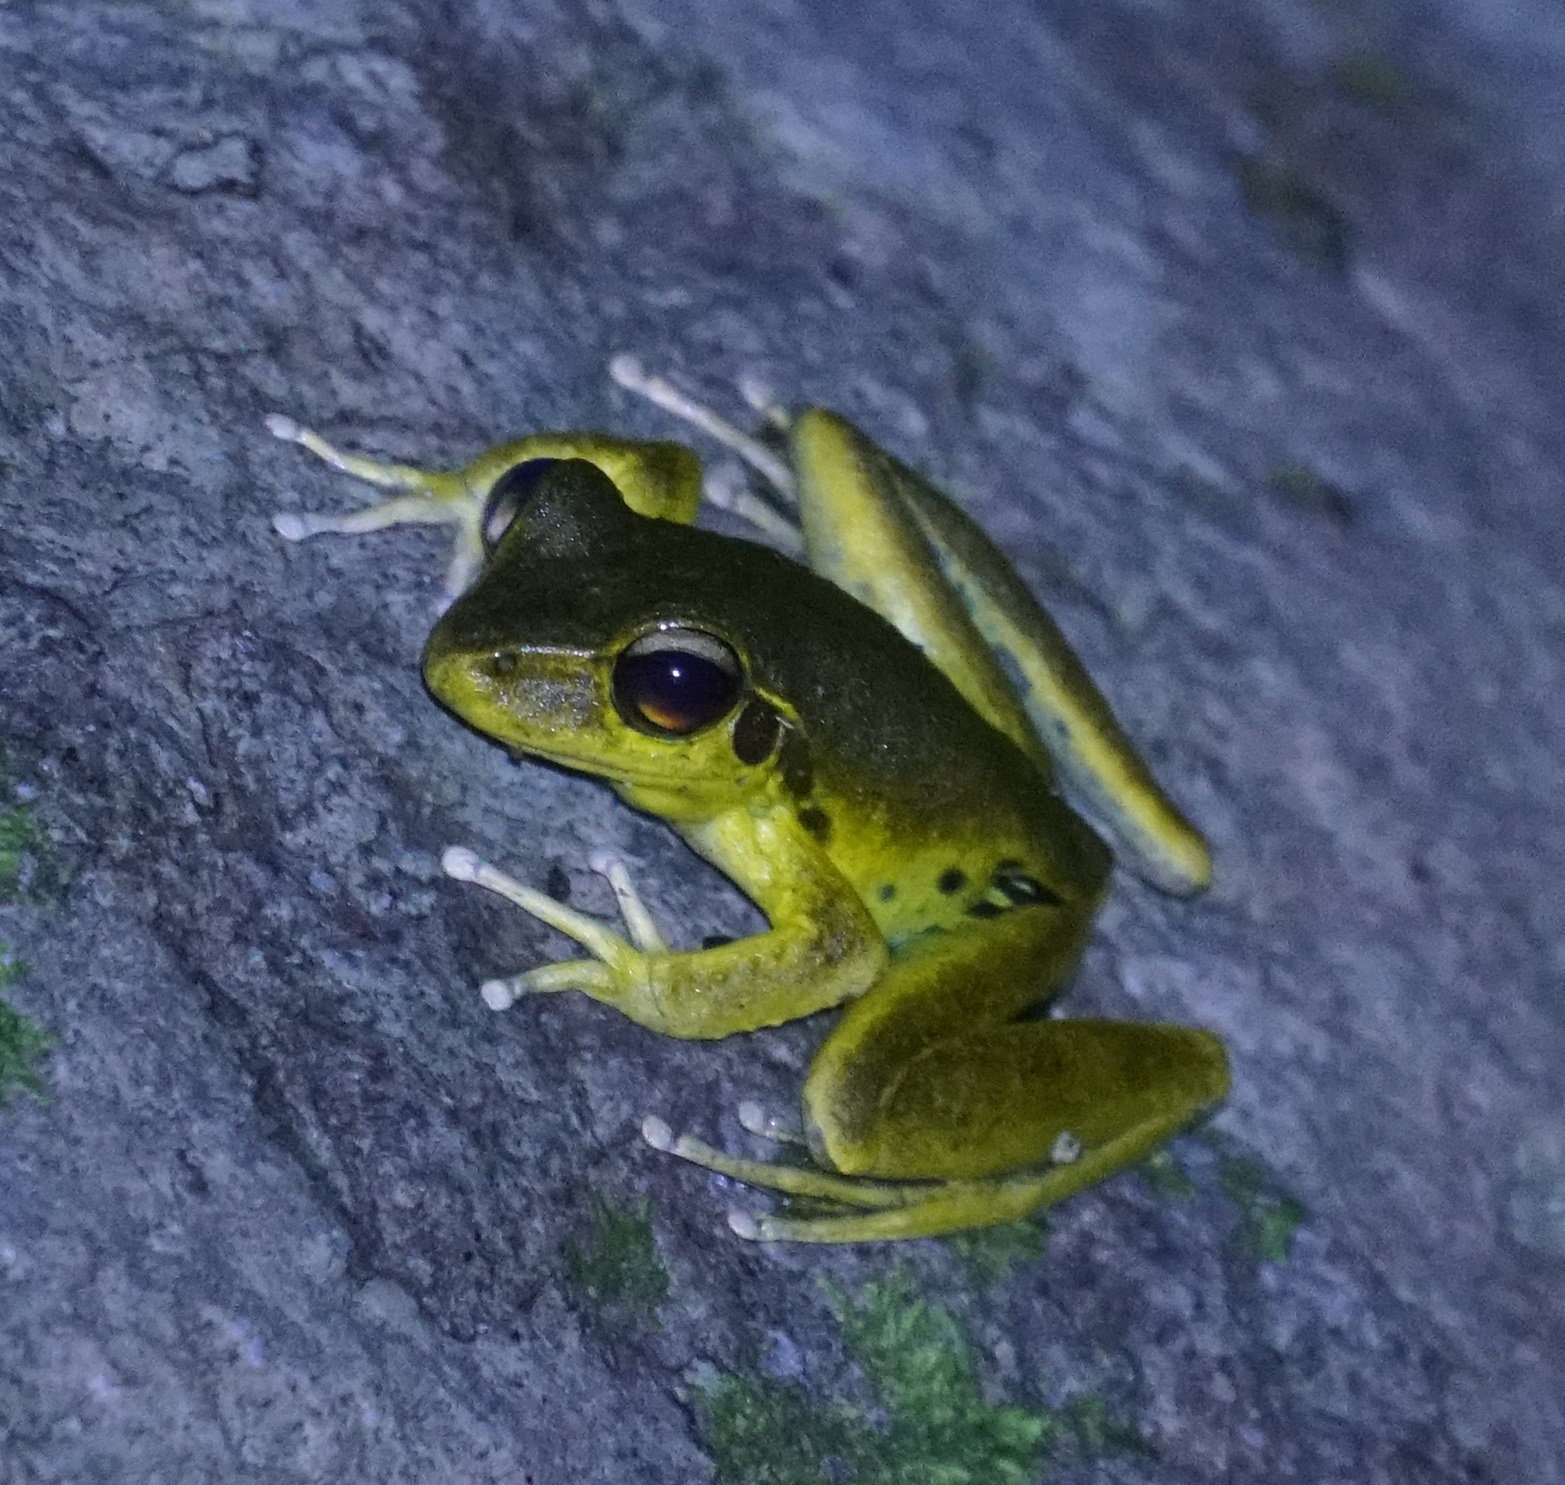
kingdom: Animalia
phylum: Chordata
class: Amphibia
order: Anura
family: Hylidae
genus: Ranoidea
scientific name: Ranoidea
